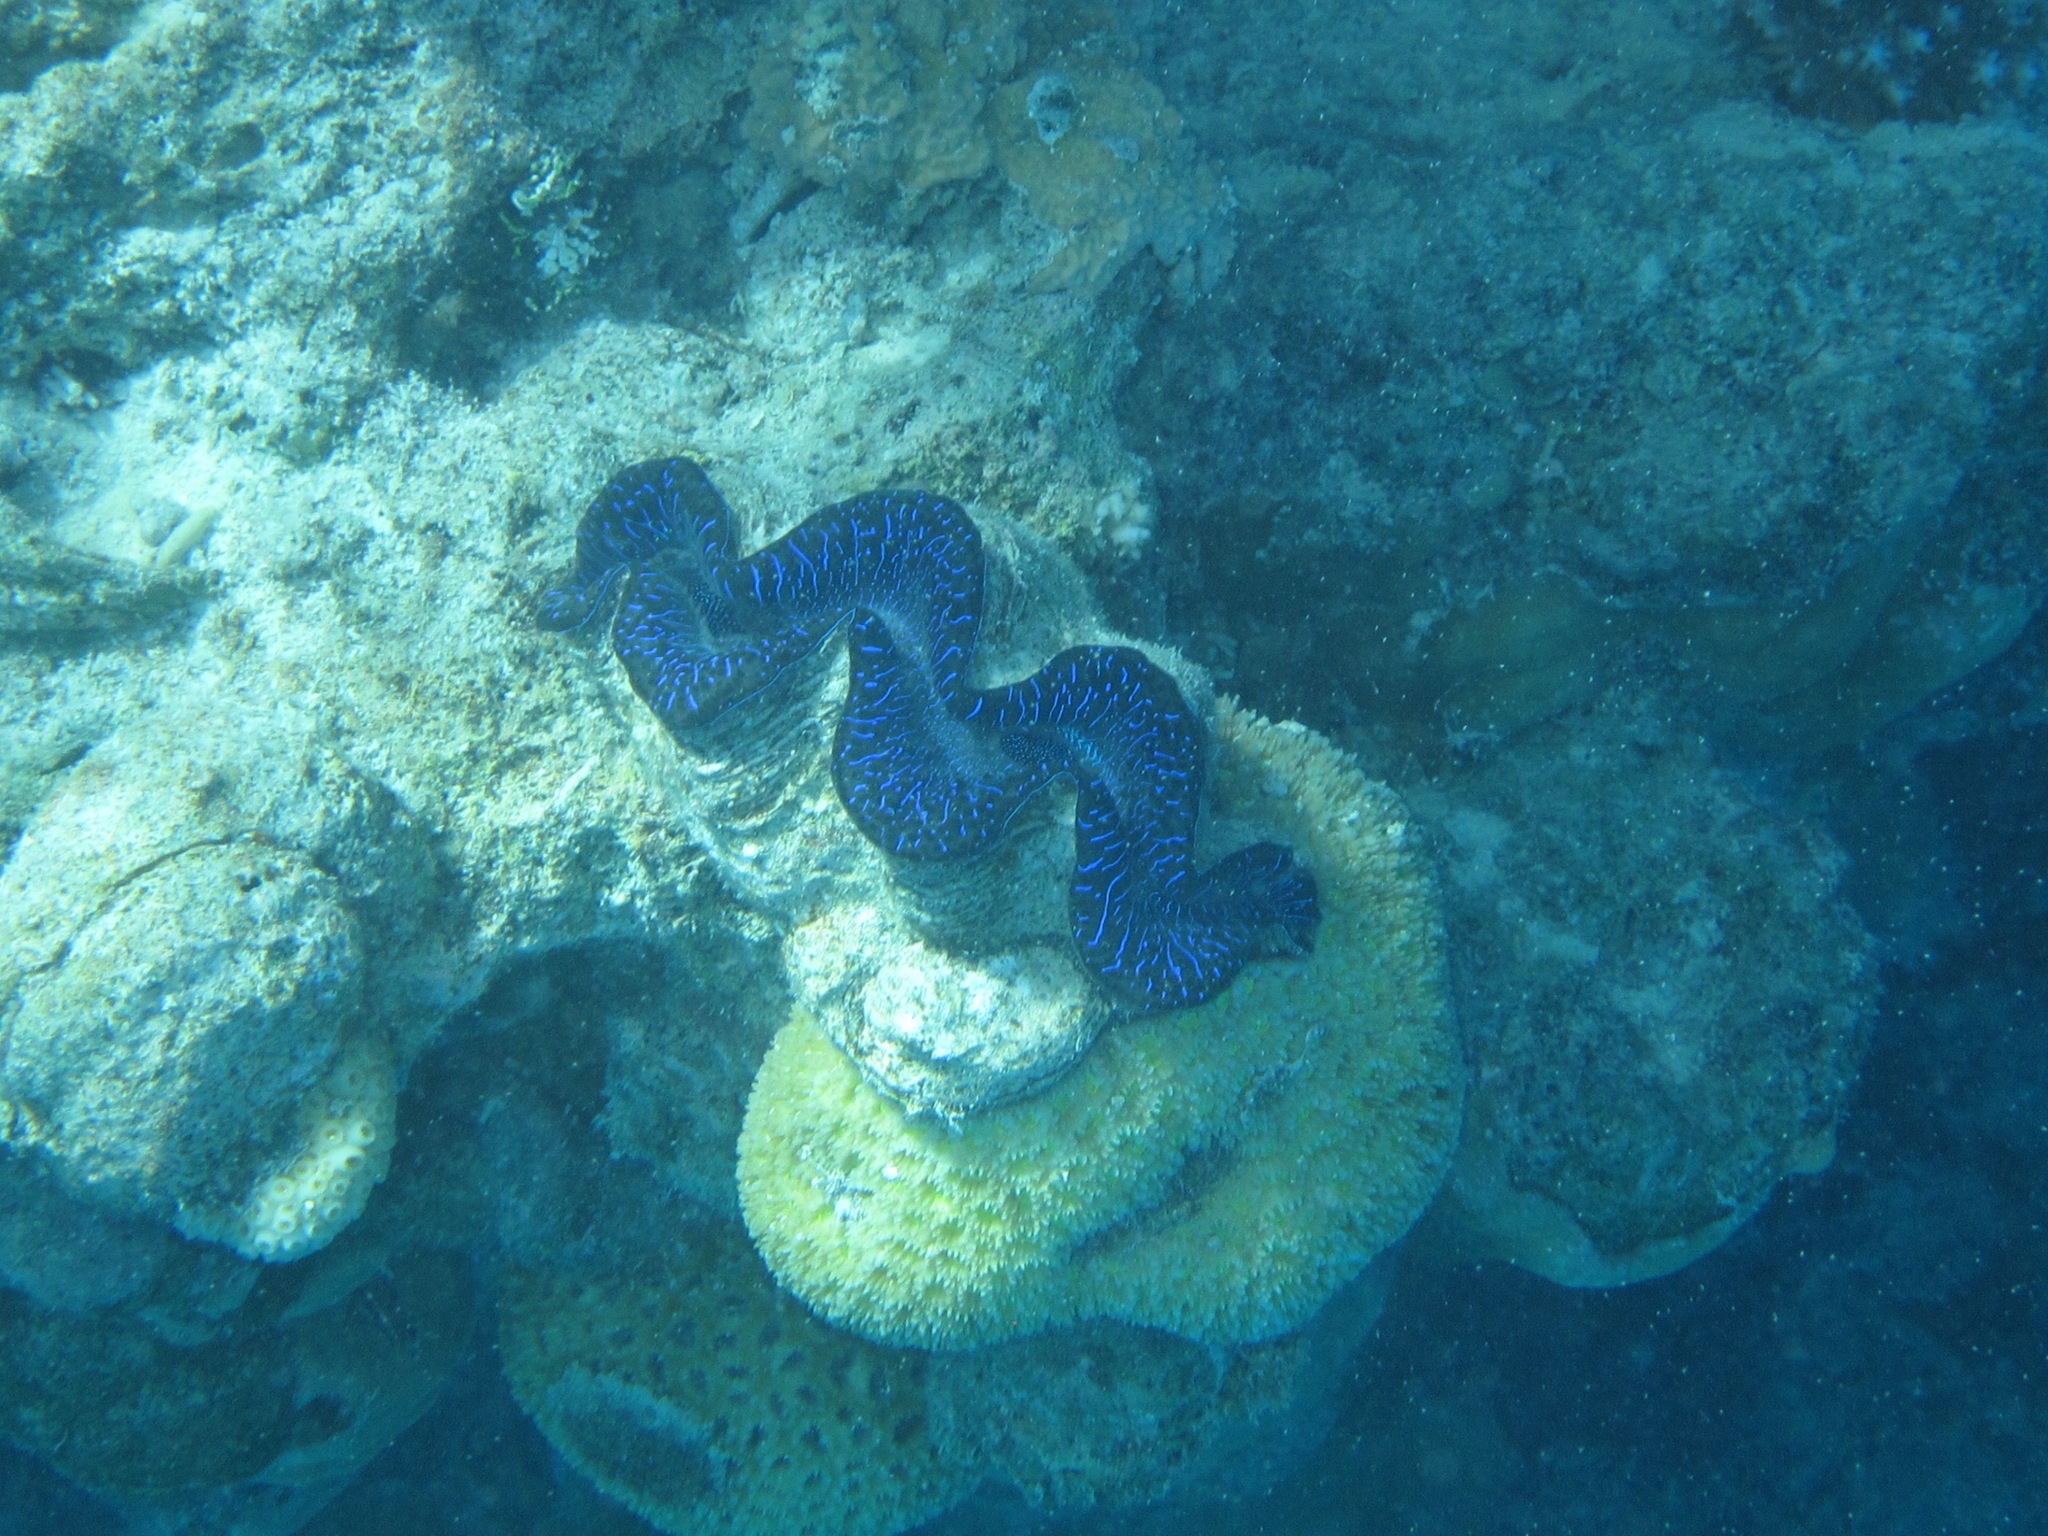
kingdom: Animalia
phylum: Mollusca
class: Bivalvia
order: Cardiida
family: Cardiidae
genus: Tridacna
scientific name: Tridacna maxima
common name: Small giant clam
